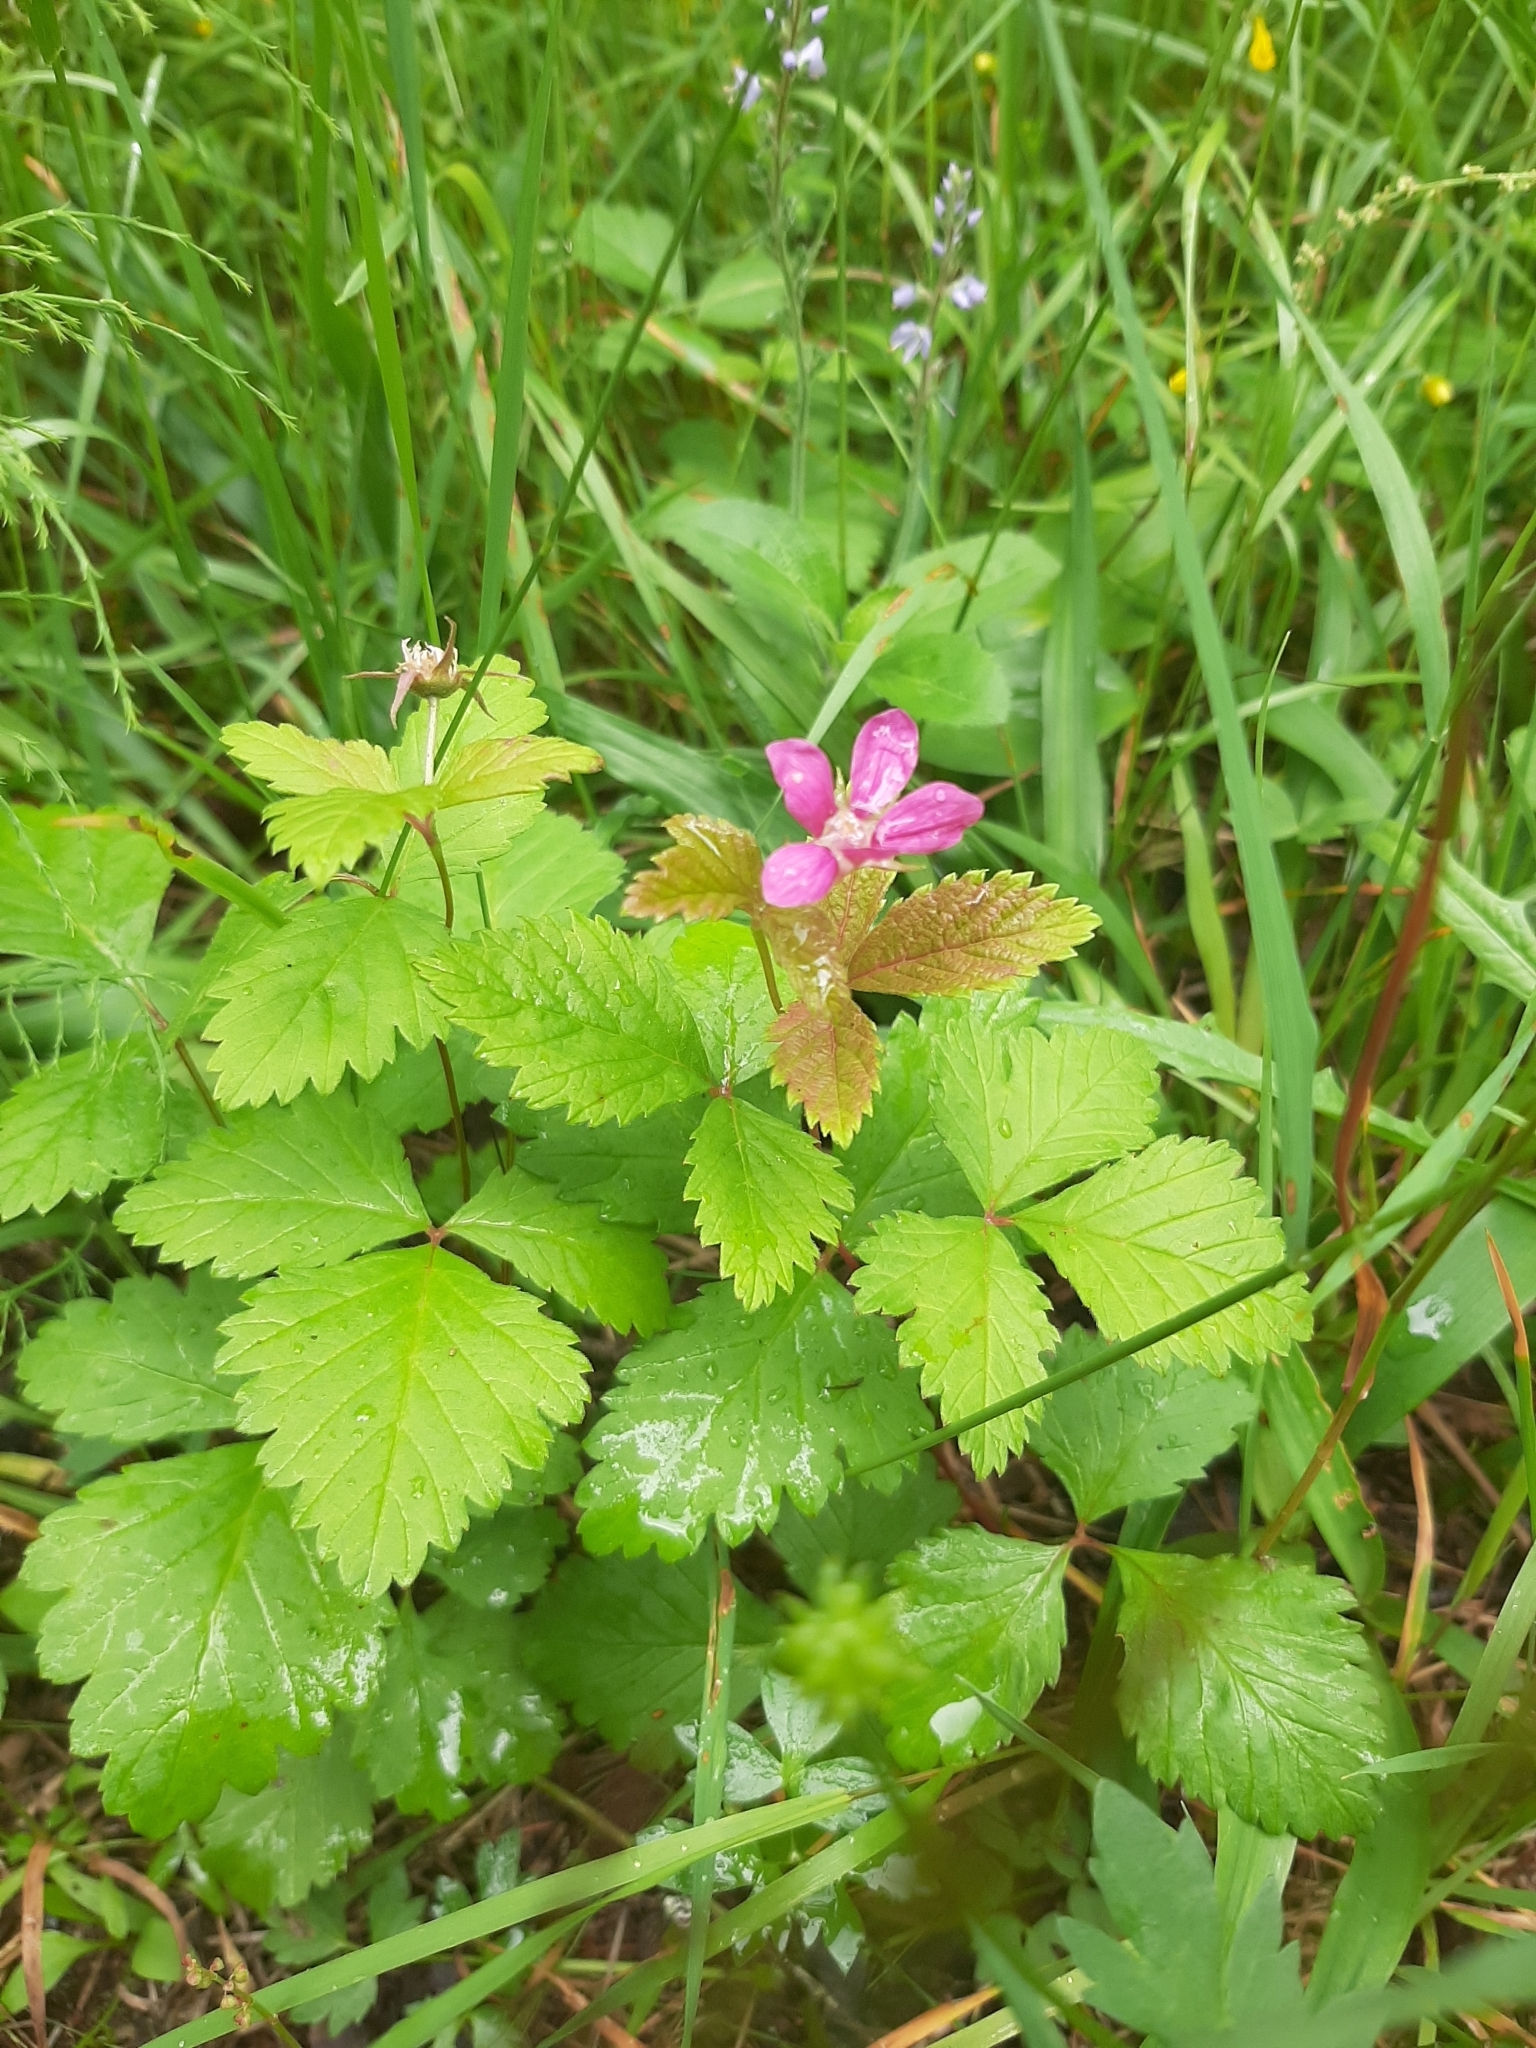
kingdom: Plantae
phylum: Tracheophyta
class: Magnoliopsida
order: Rosales
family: Rosaceae
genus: Rubus
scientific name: Rubus arcticus
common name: Arctic bramble
